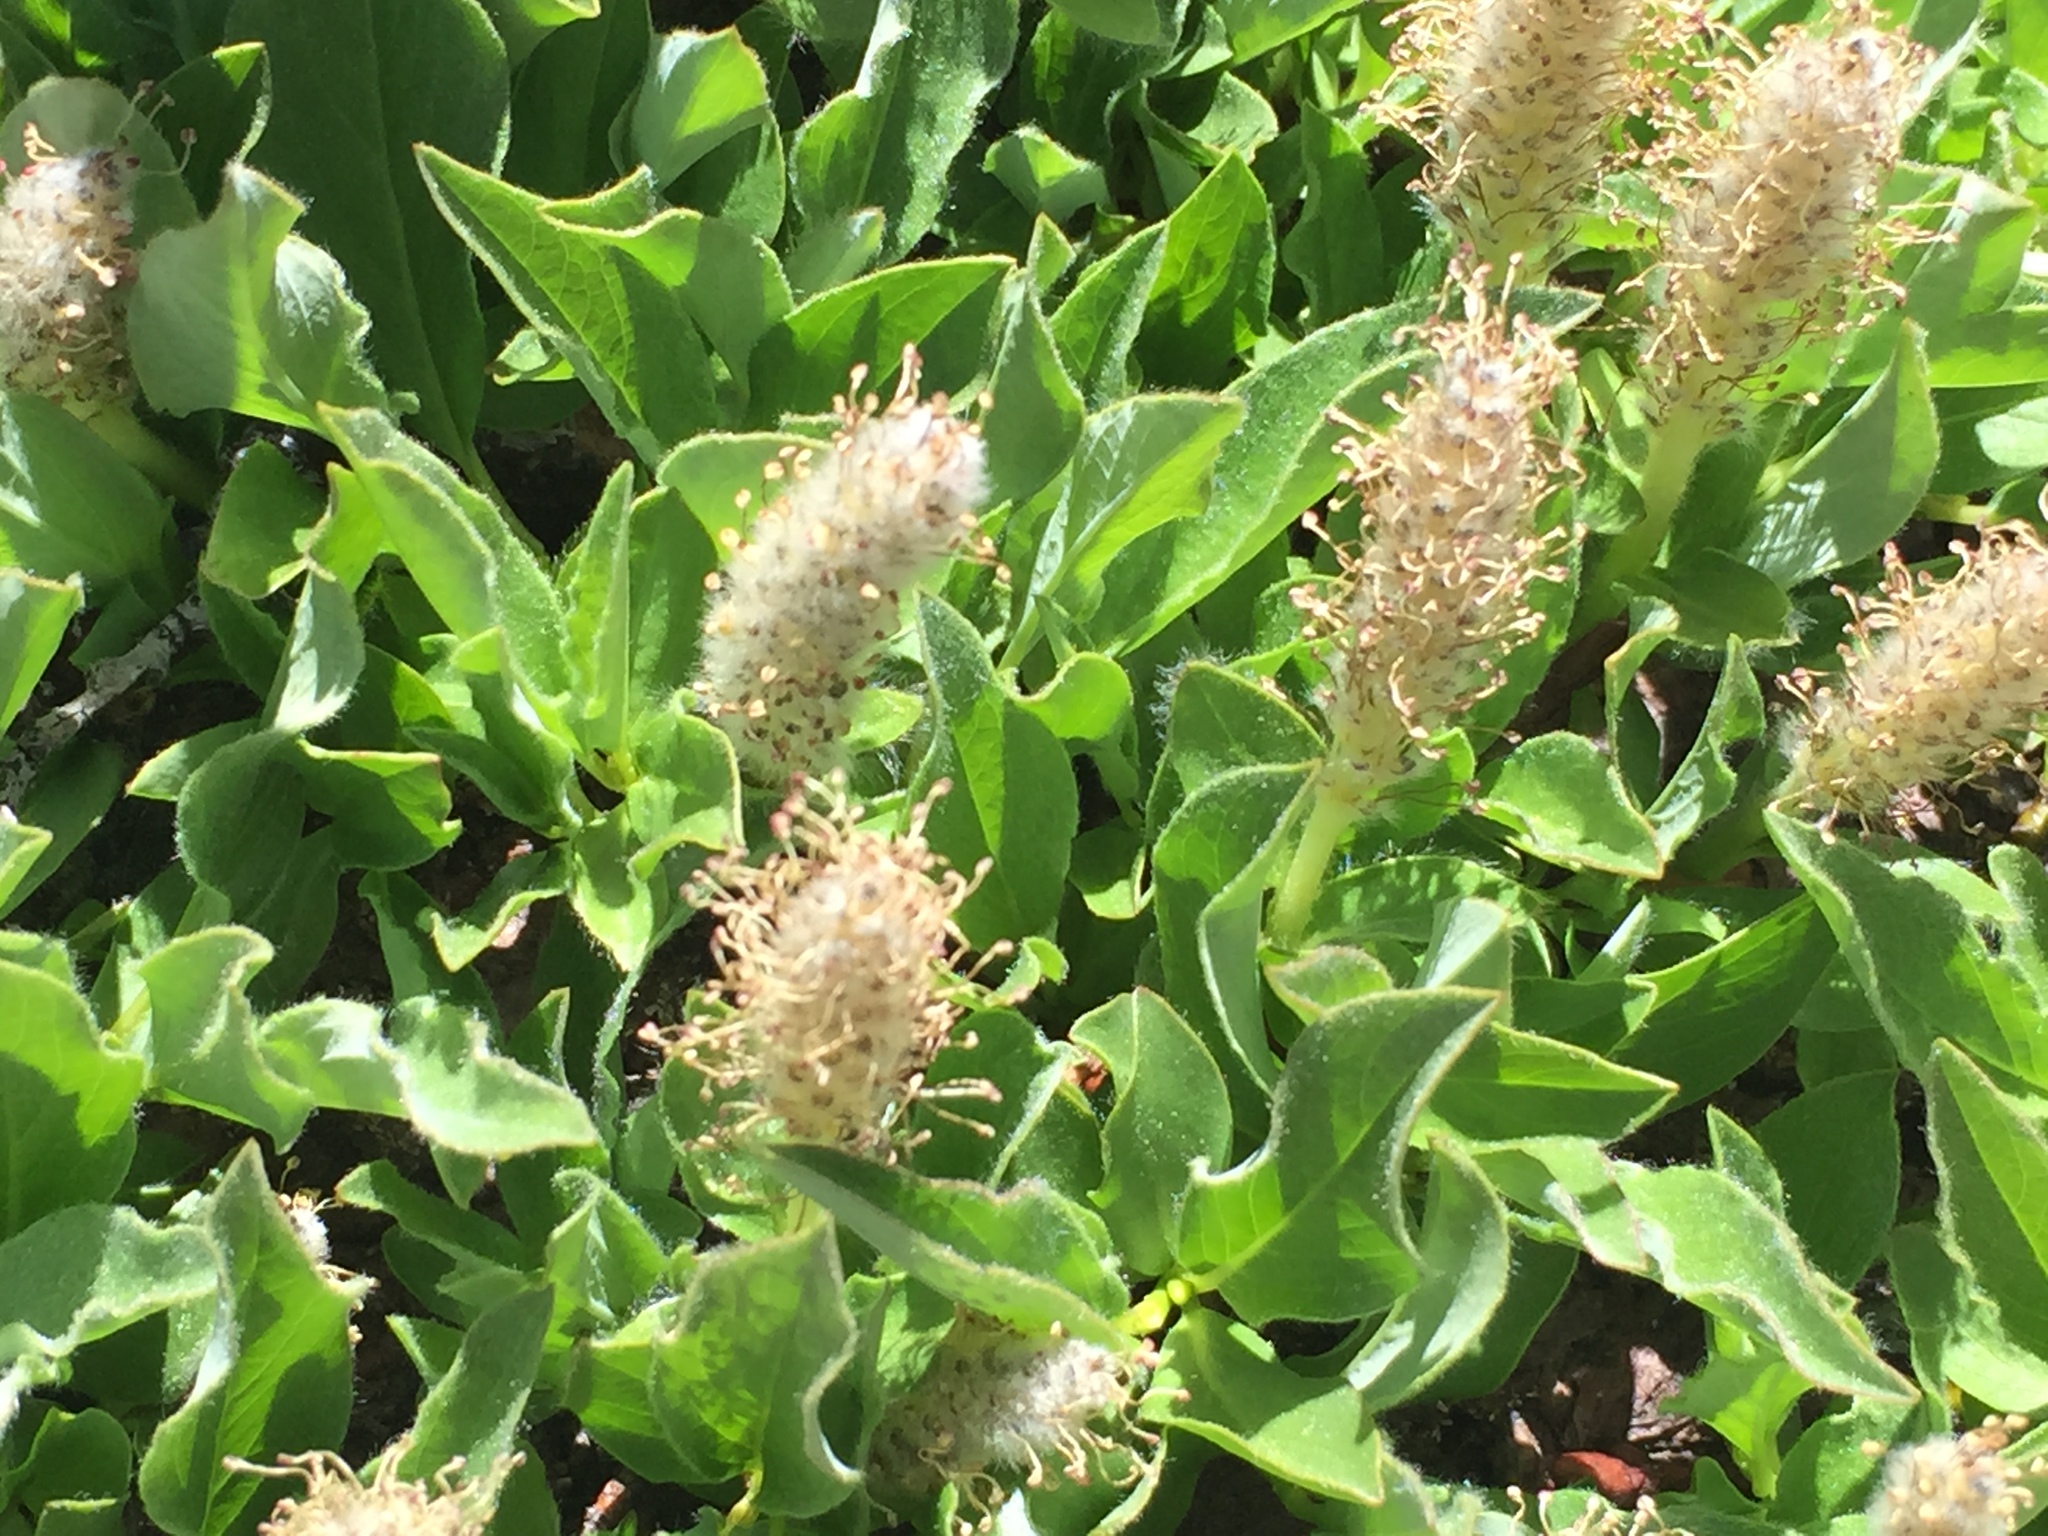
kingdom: Plantae
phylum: Tracheophyta
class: Magnoliopsida
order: Malpighiales
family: Salicaceae
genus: Salix
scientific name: Salix petrophila
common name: Rocky mountain willow
